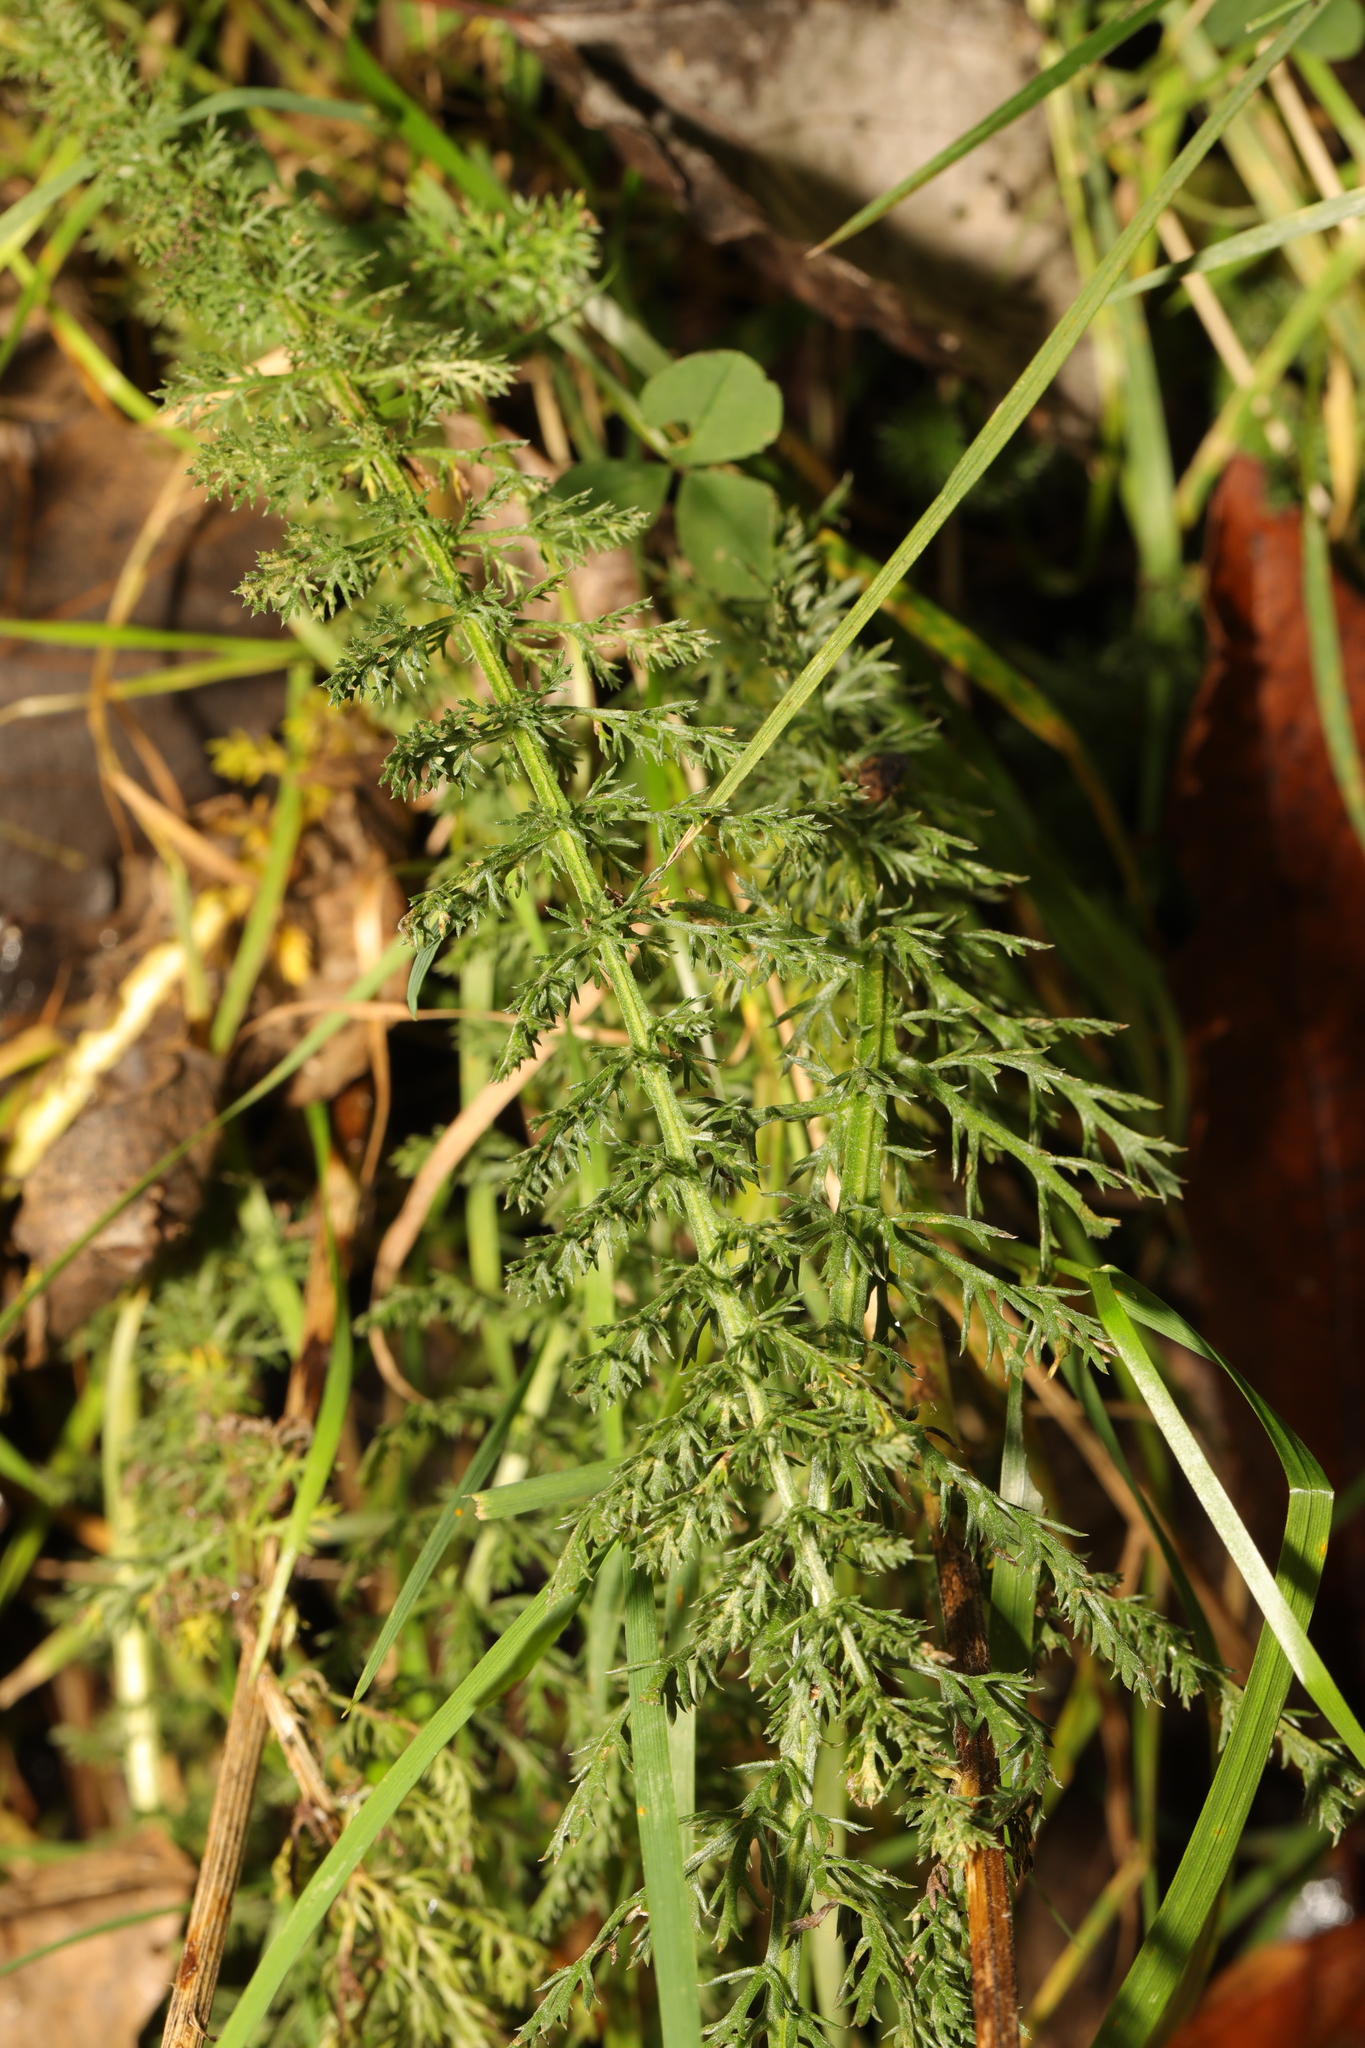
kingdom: Plantae
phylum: Tracheophyta
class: Magnoliopsida
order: Asterales
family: Asteraceae
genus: Achillea
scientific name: Achillea millefolium
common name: Yarrow
